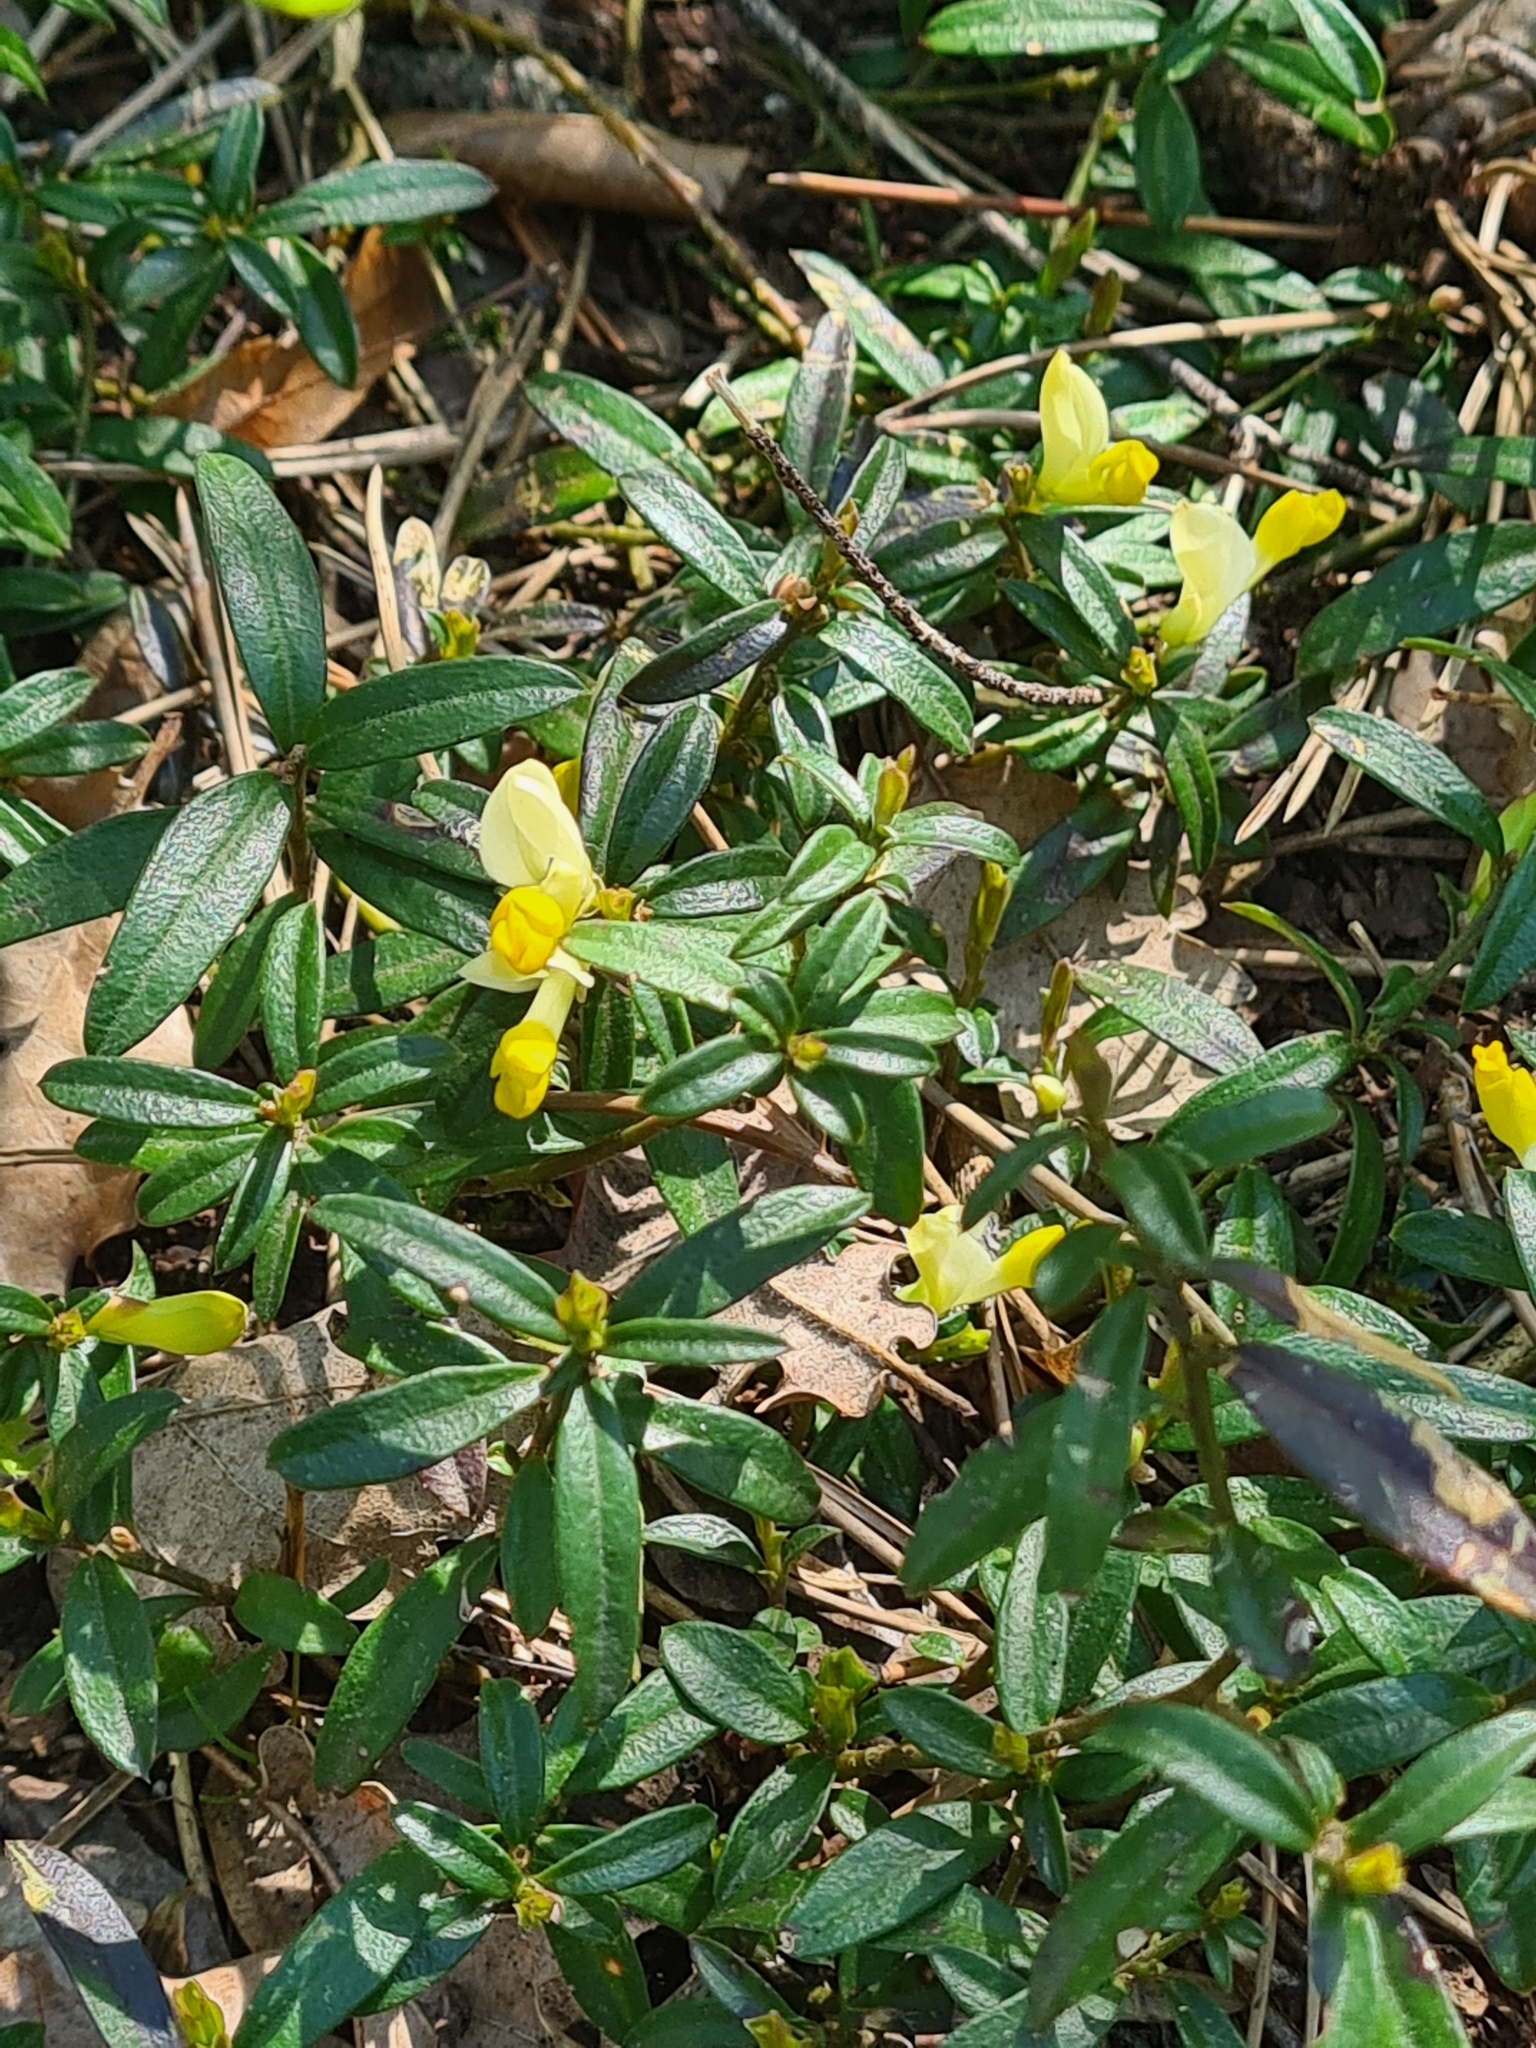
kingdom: Plantae
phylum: Tracheophyta
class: Magnoliopsida
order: Fabales
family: Polygalaceae
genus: Polygaloides
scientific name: Polygaloides chamaebuxus
